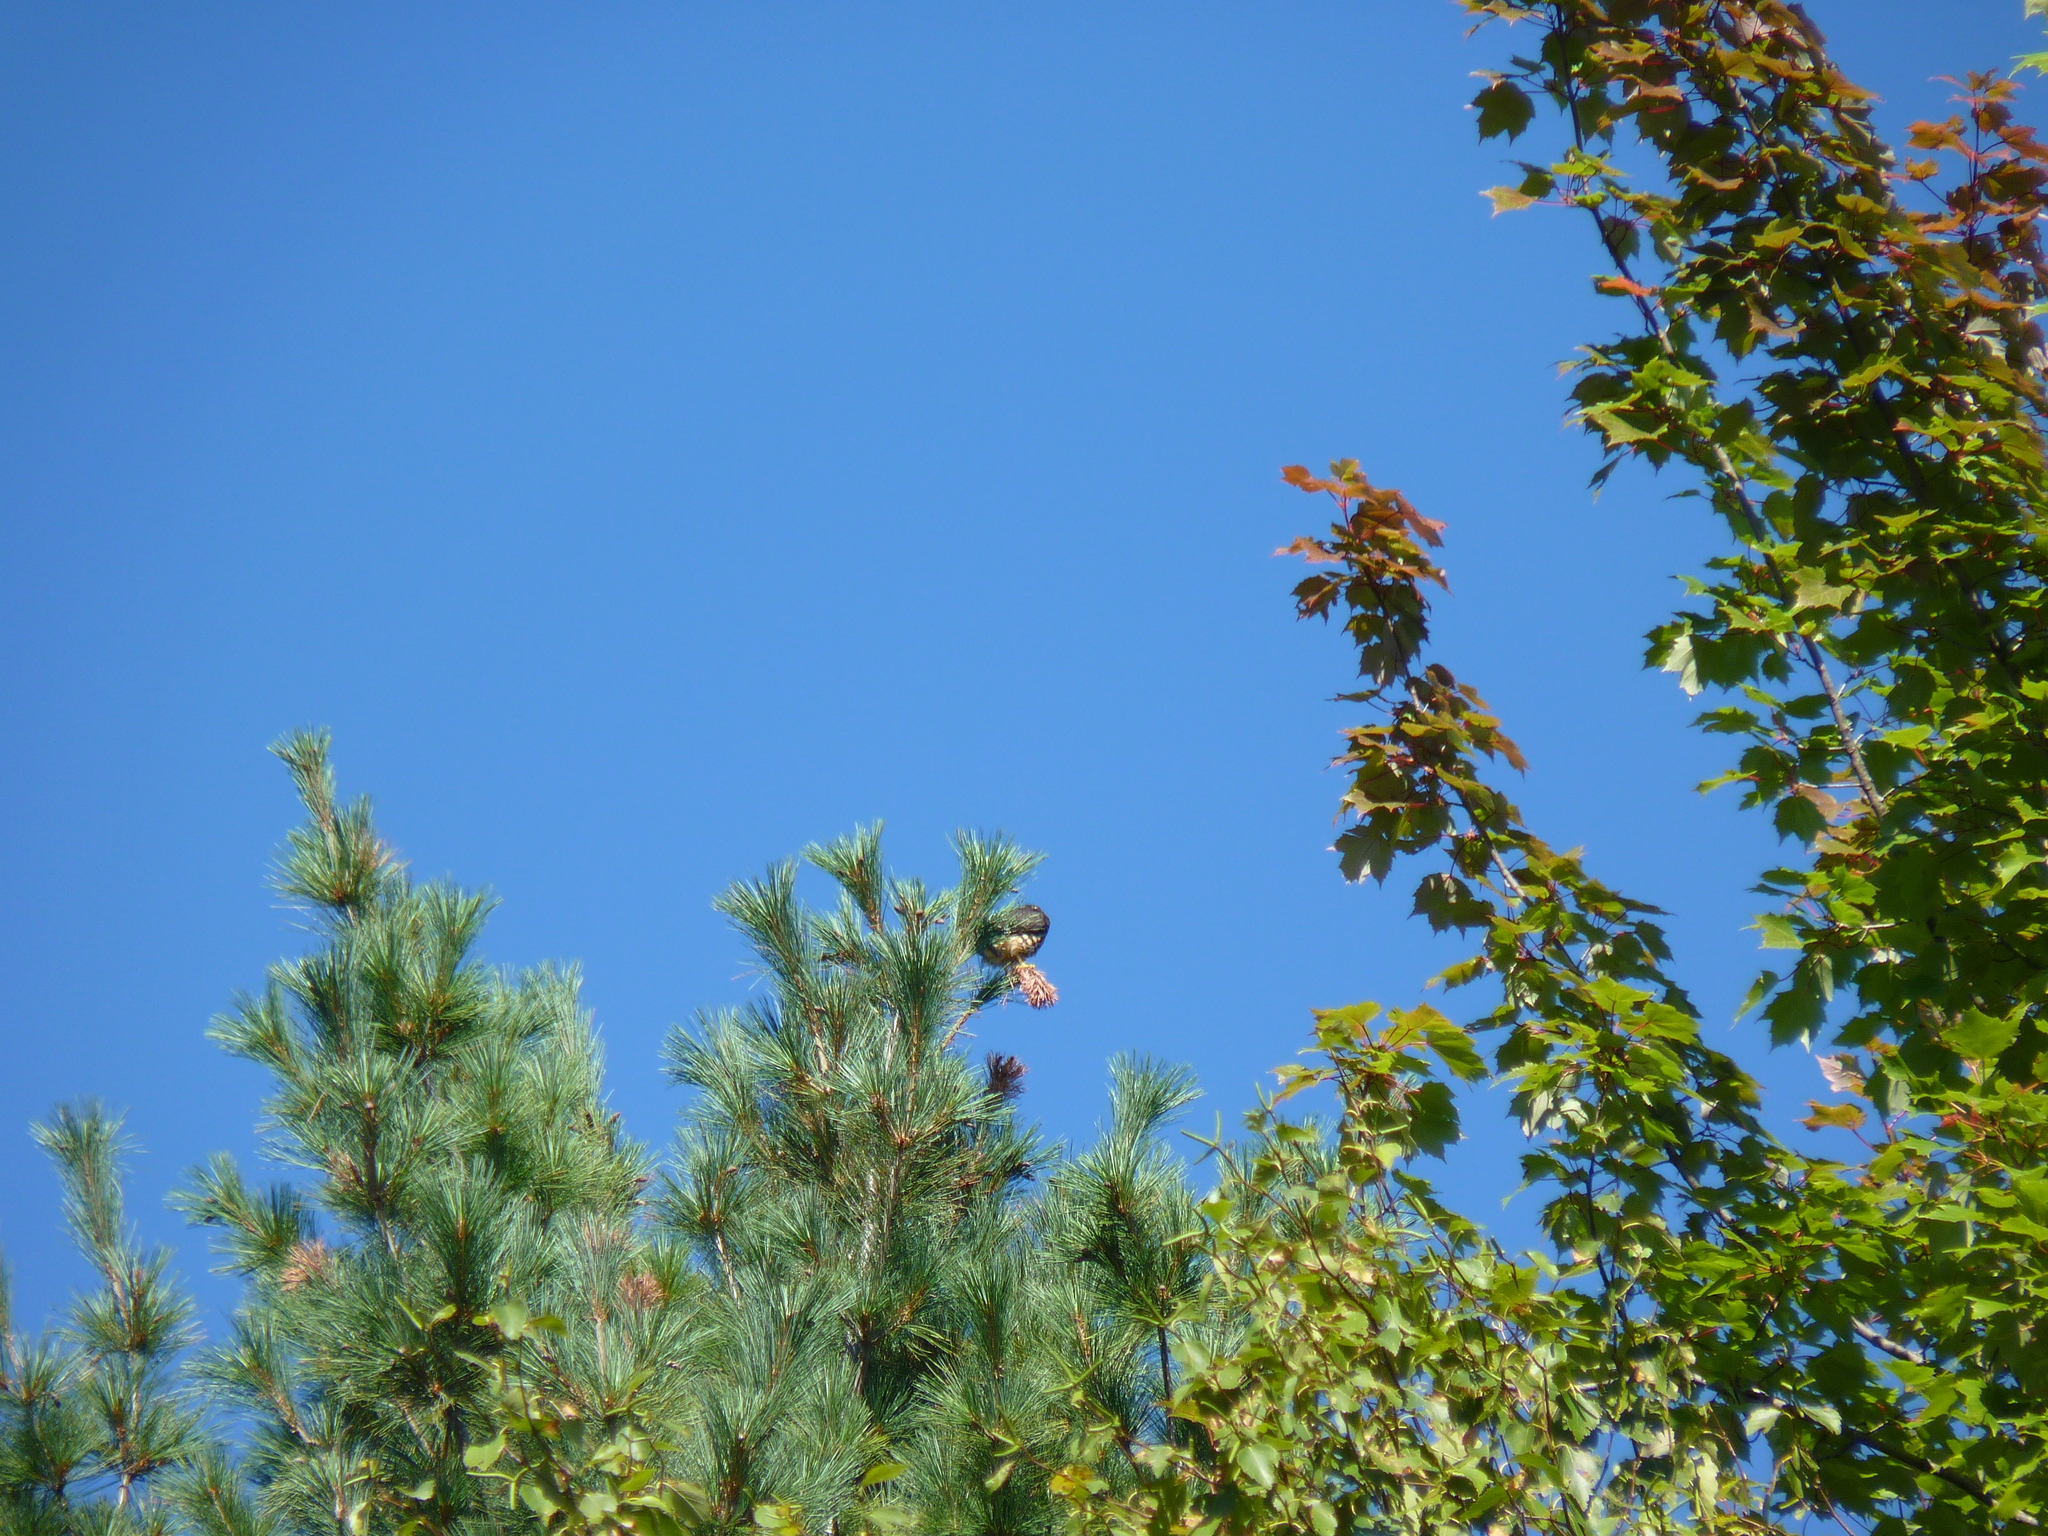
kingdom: Animalia
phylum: Chordata
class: Aves
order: Falconiformes
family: Falconidae
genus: Falco
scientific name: Falco columbarius
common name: Merlin
